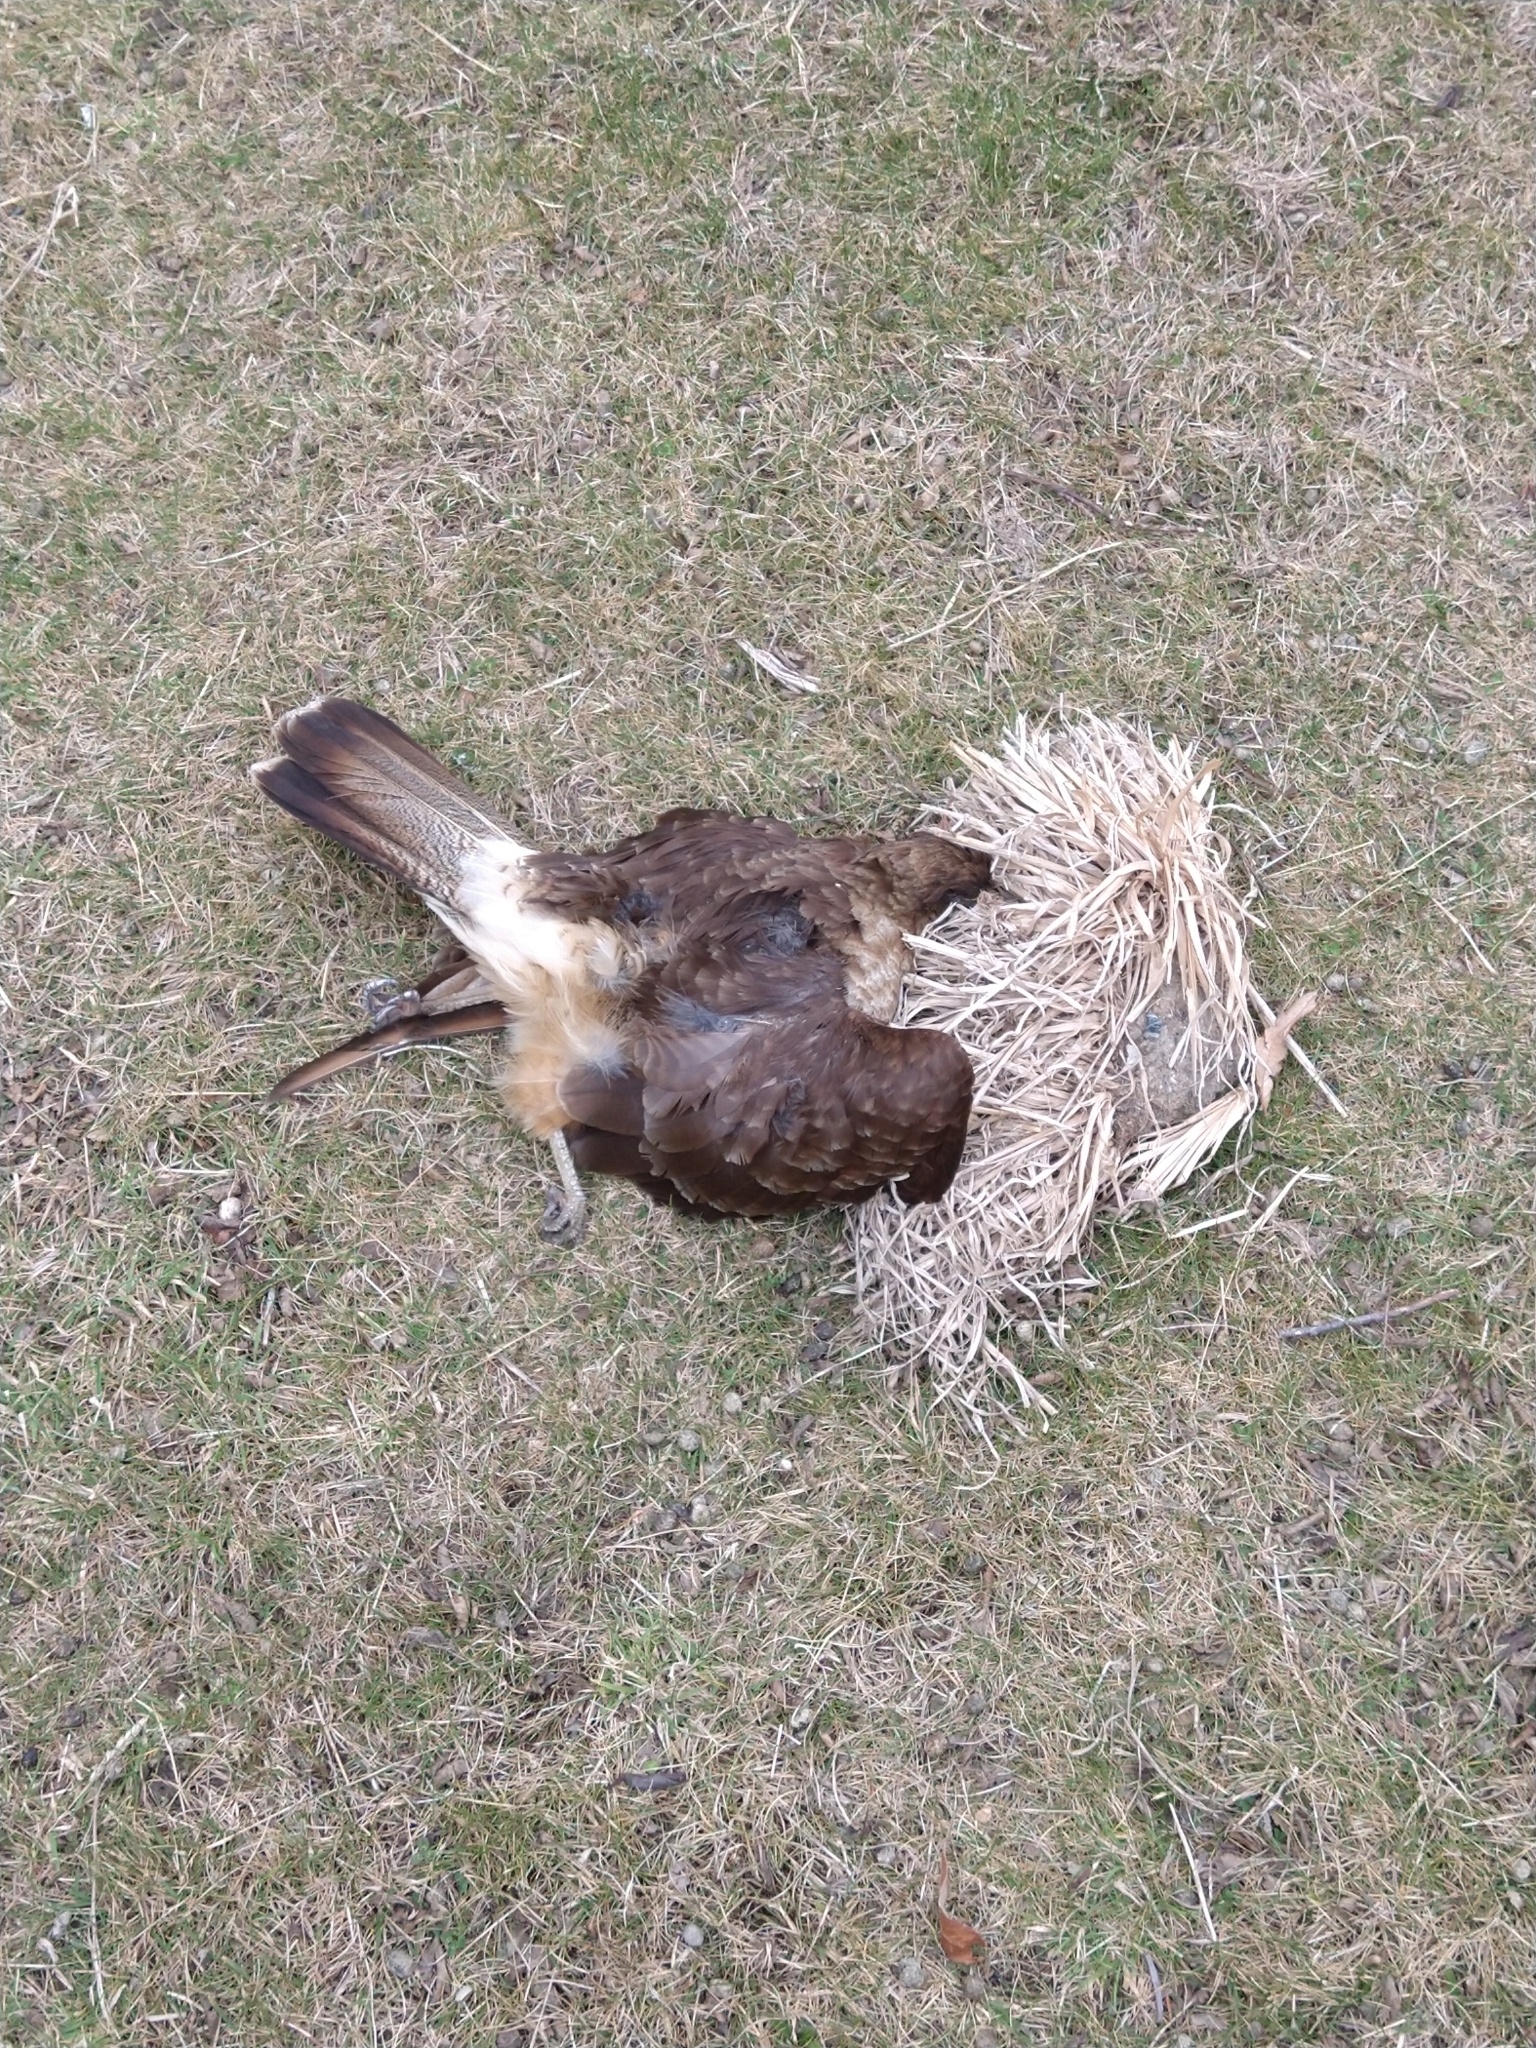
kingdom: Animalia
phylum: Chordata
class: Aves
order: Falconiformes
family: Falconidae
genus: Daptrius
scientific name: Daptrius
